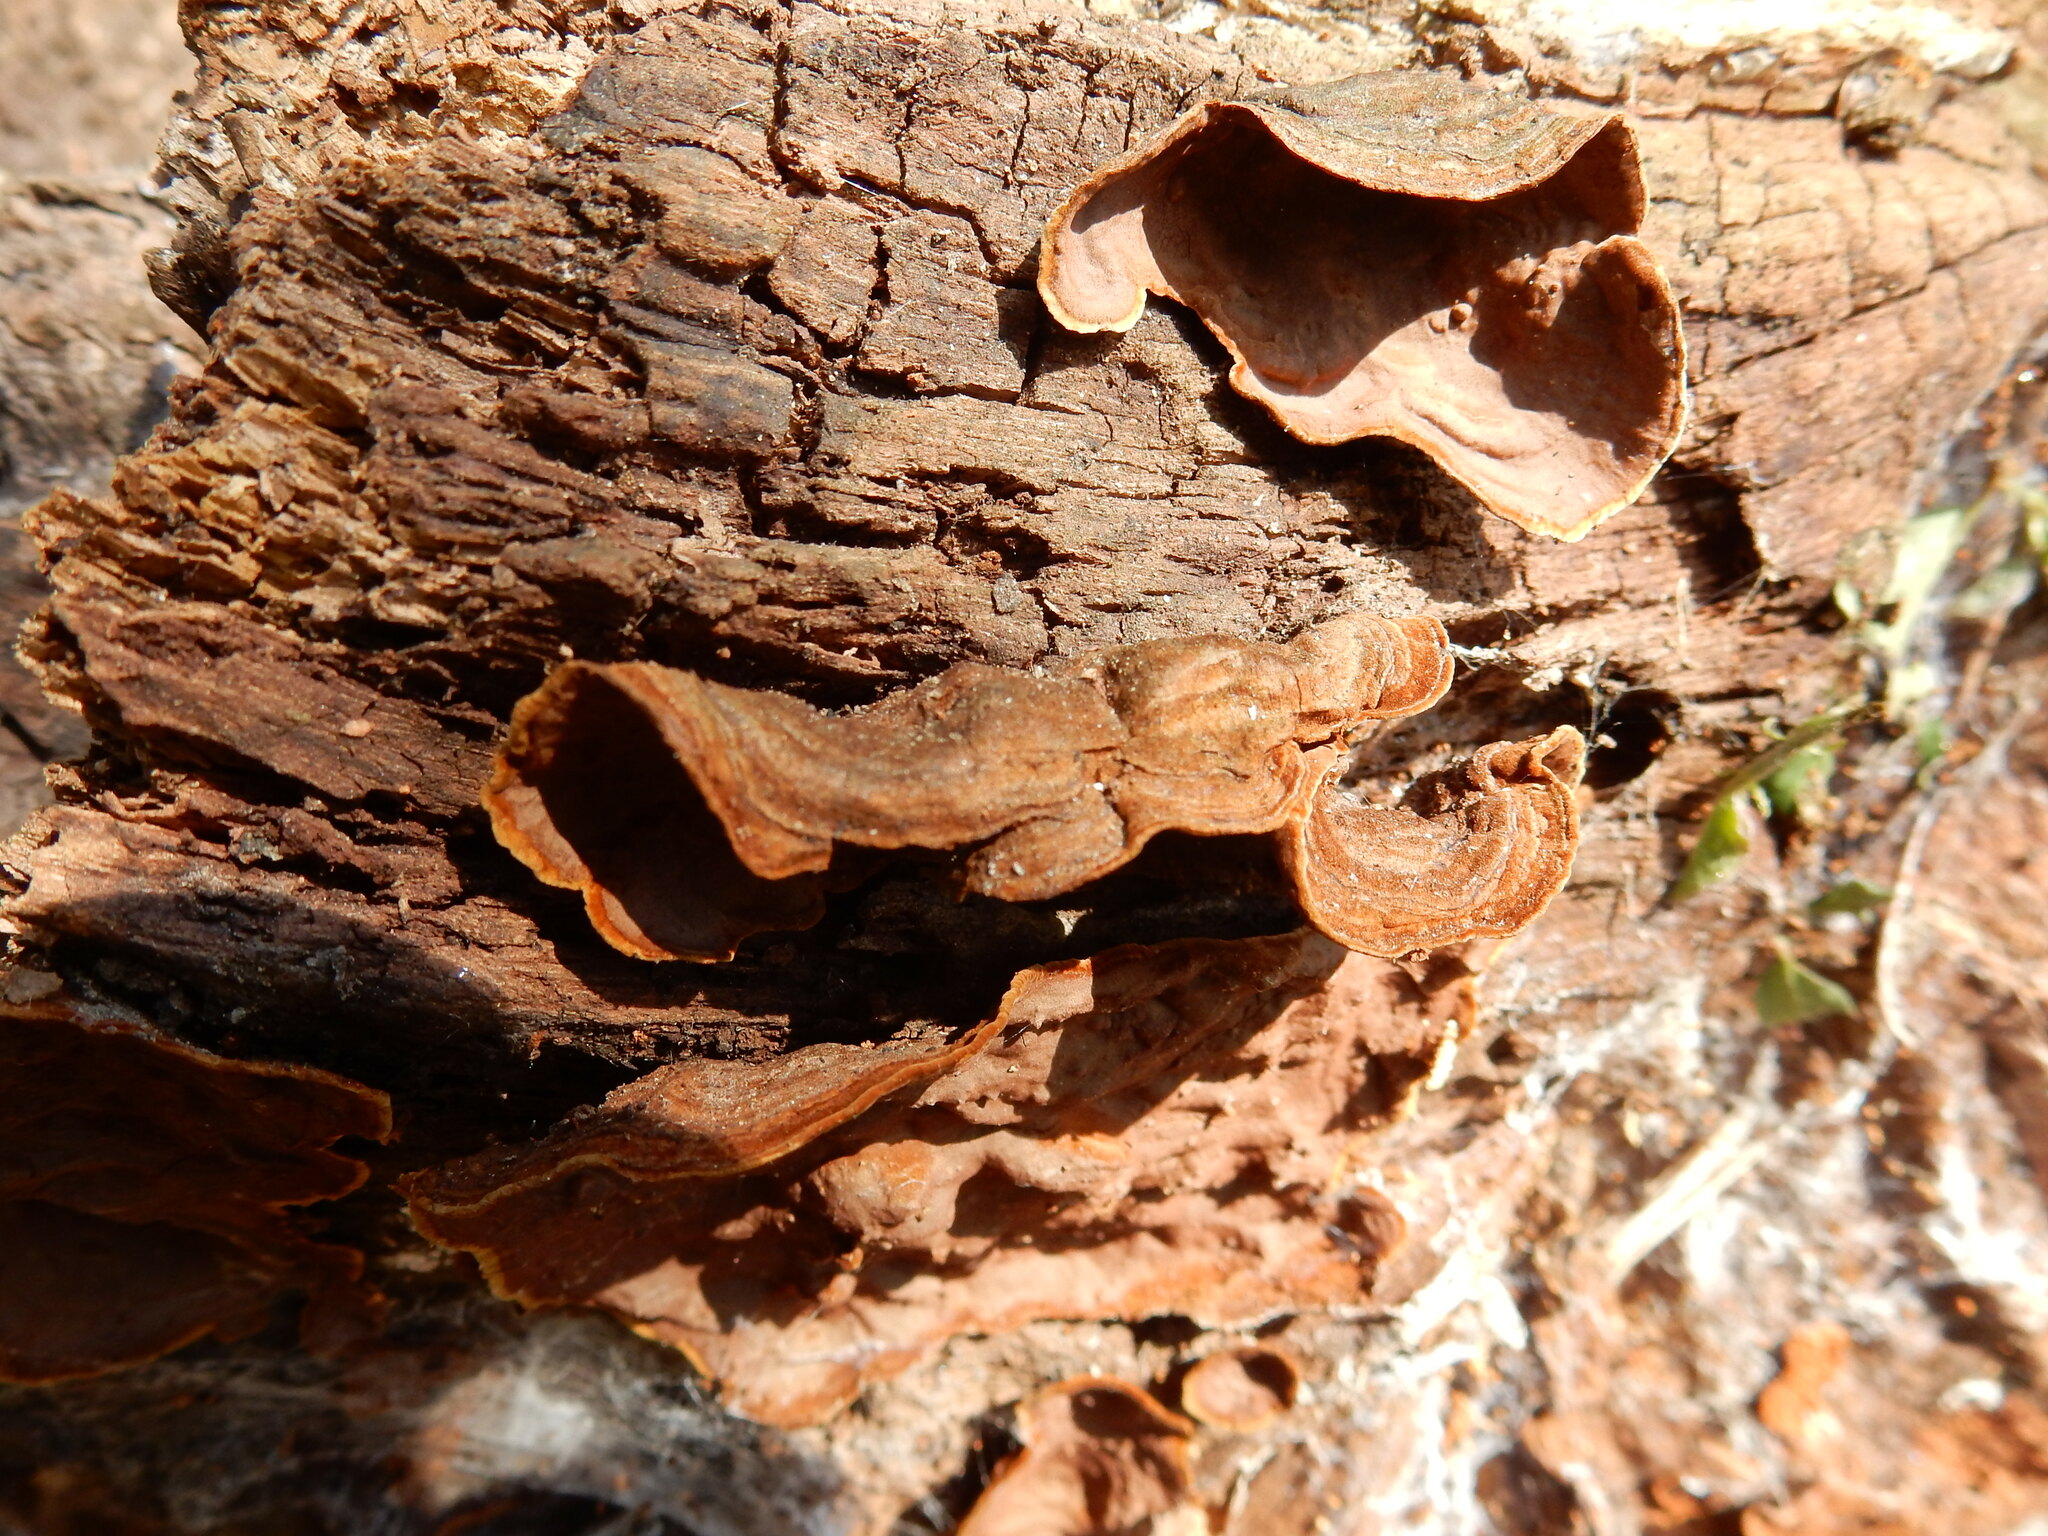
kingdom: Fungi
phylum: Basidiomycota
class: Agaricomycetes
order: Hymenochaetales
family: Hymenochaetaceae
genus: Hymenochaete
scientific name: Hymenochaete rubiginosa
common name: Oak curtain crust
